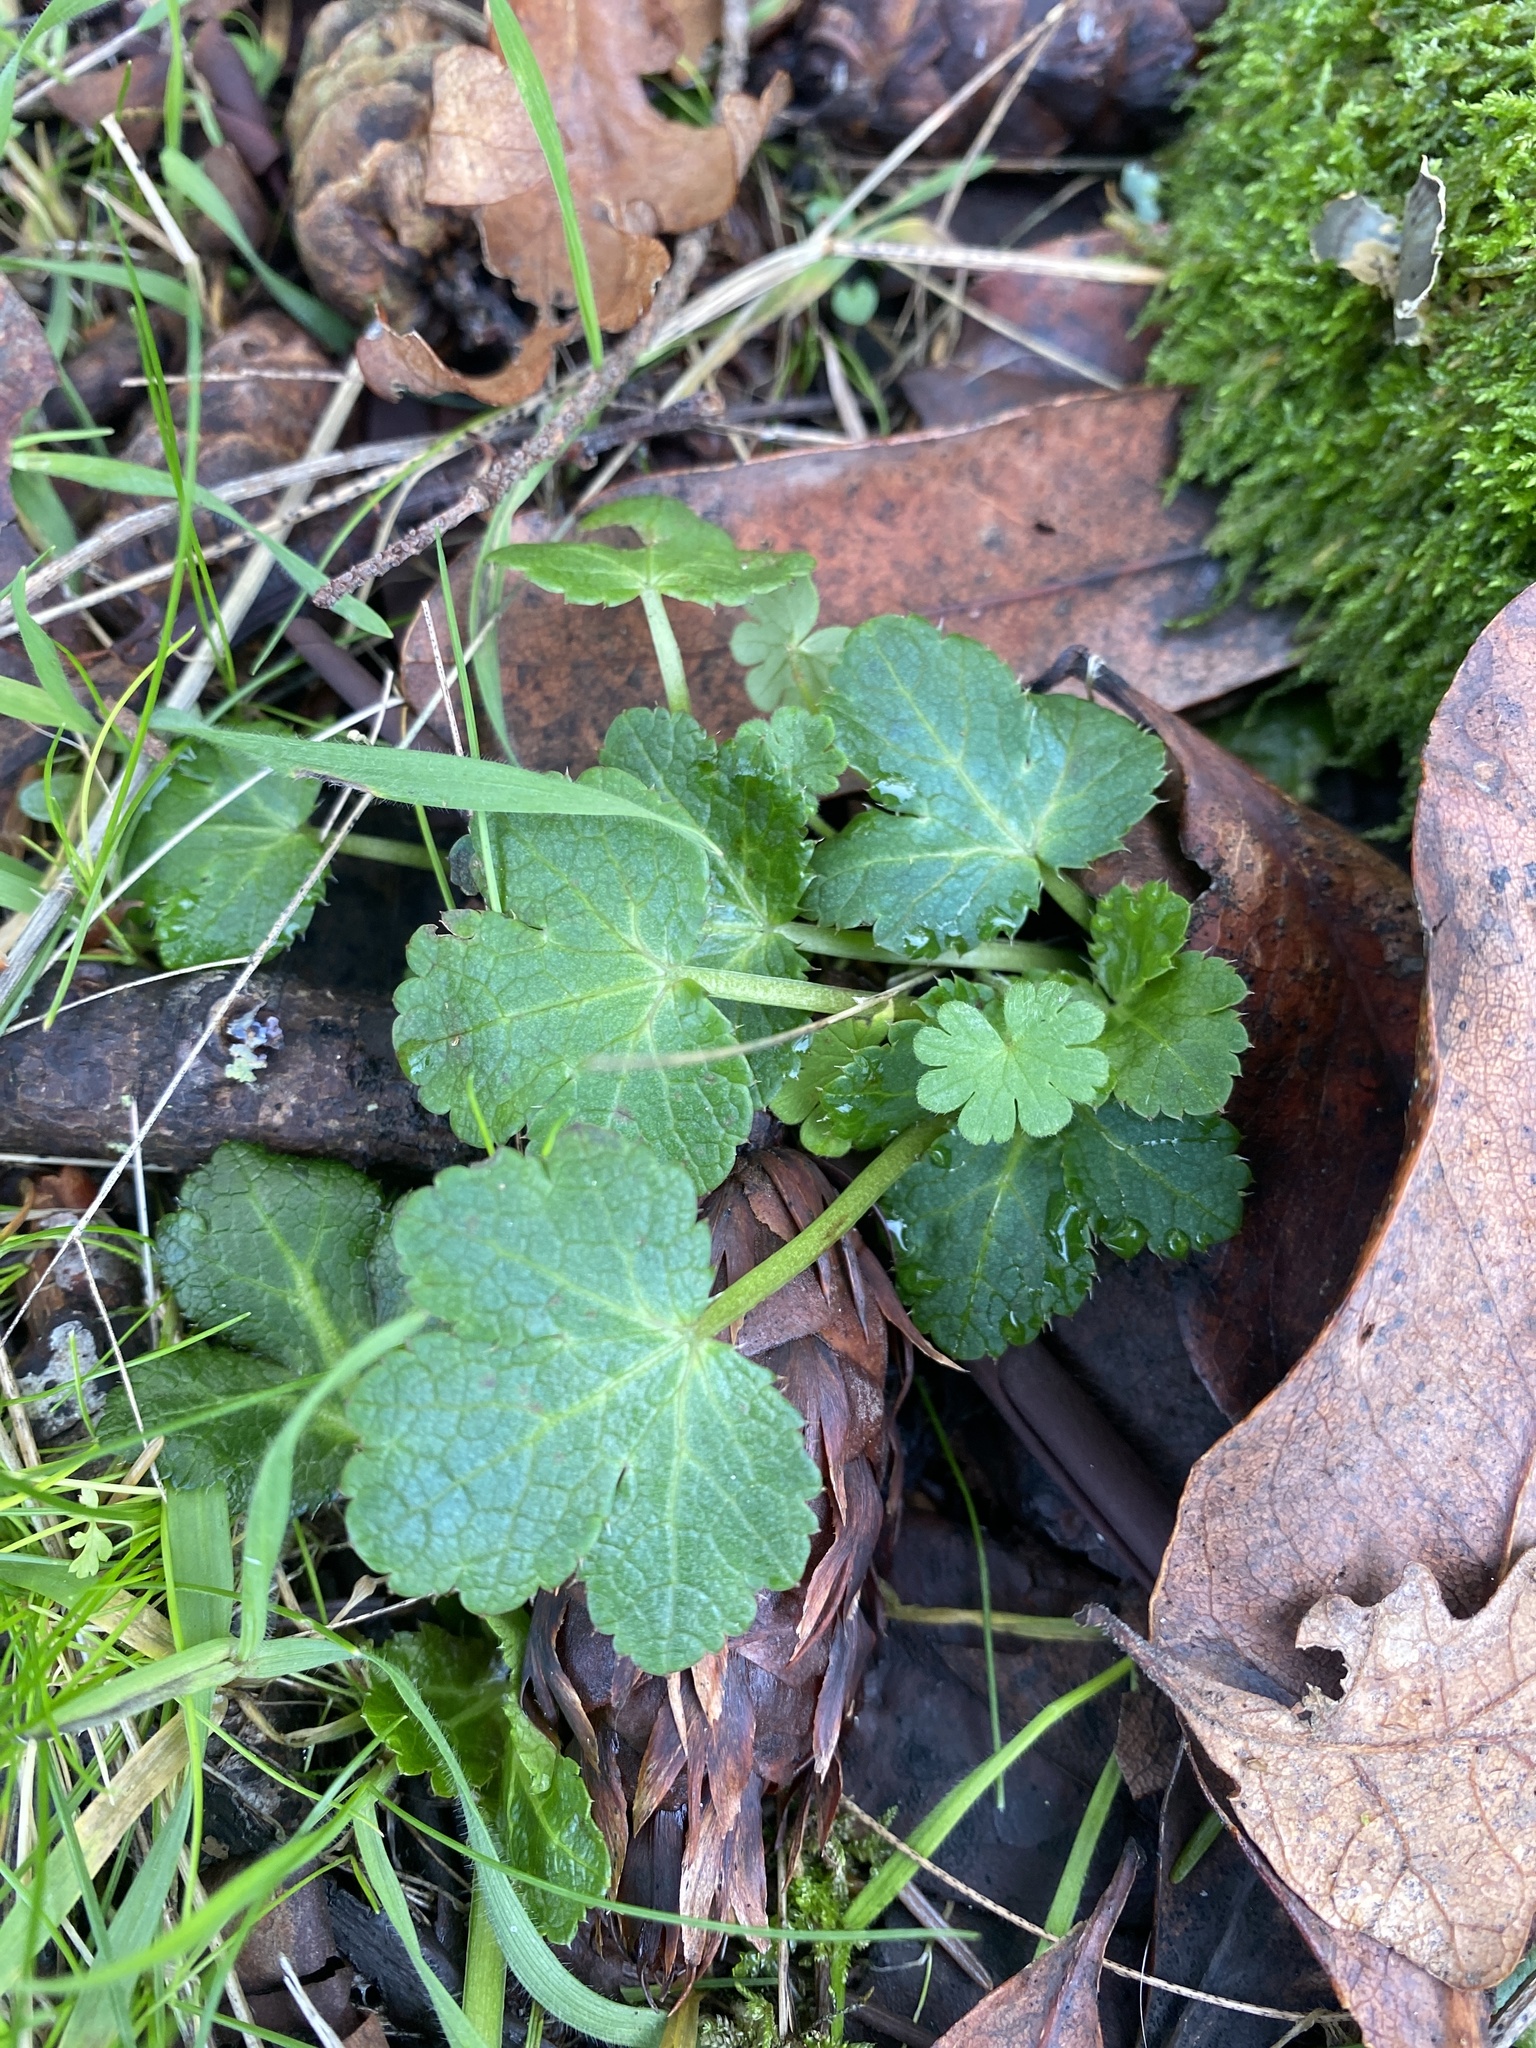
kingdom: Plantae
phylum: Tracheophyta
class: Magnoliopsida
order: Apiales
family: Apiaceae
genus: Sanicula
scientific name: Sanicula crassicaulis
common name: Western snakeroot
